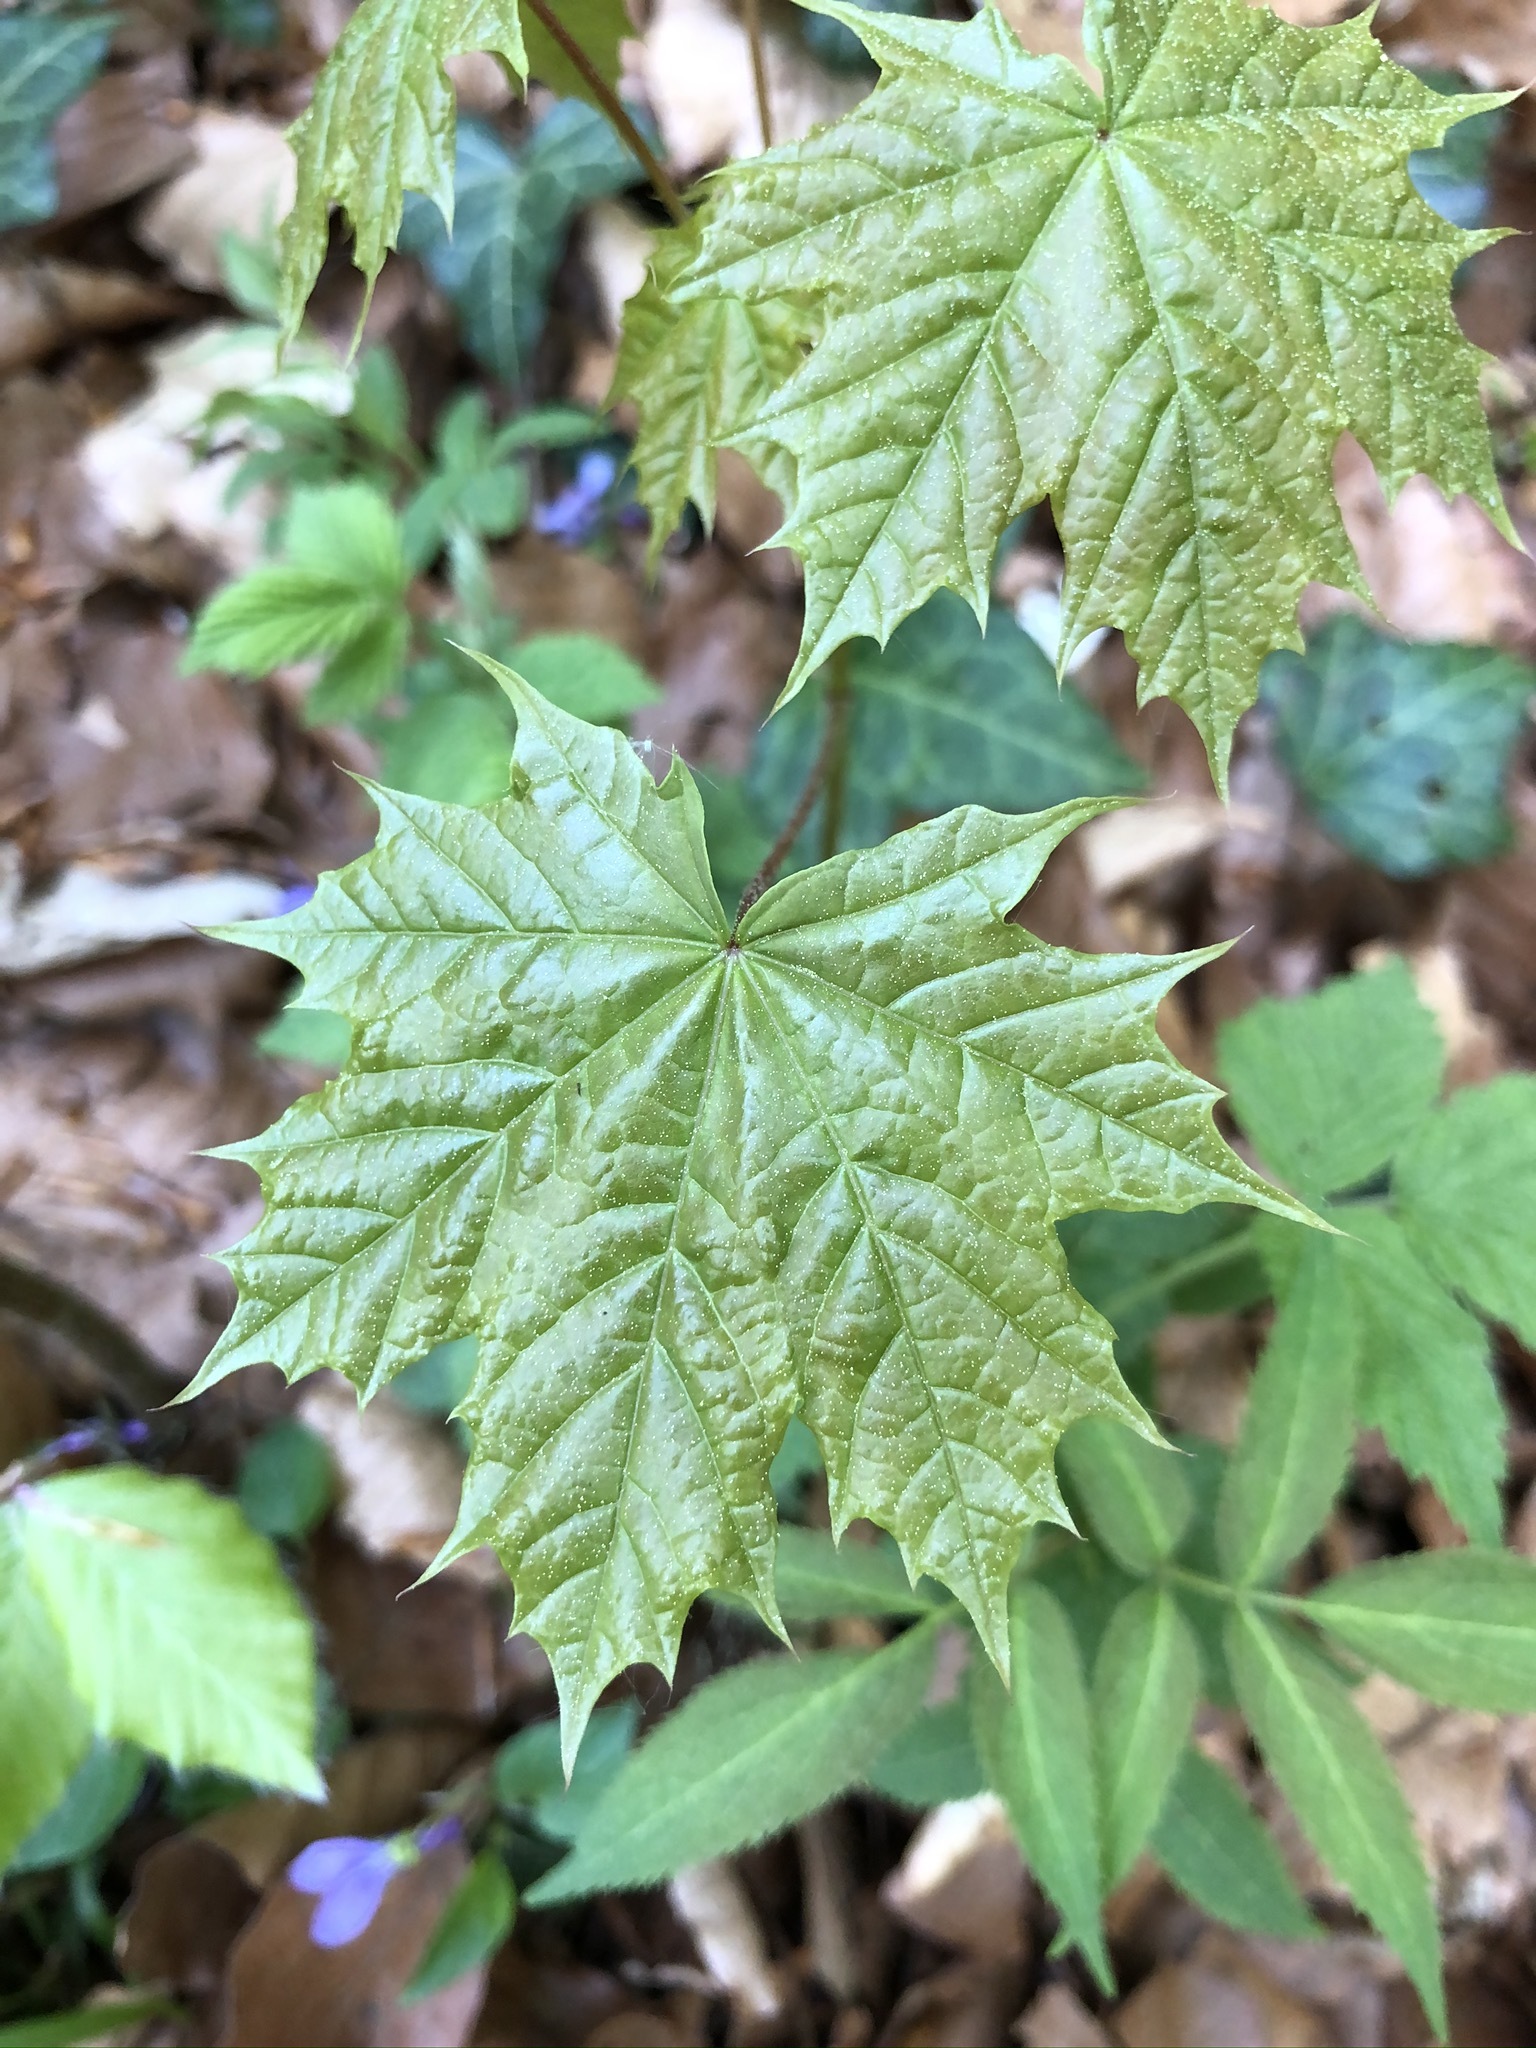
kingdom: Plantae
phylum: Tracheophyta
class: Magnoliopsida
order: Sapindales
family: Sapindaceae
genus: Acer
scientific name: Acer platanoides
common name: Norway maple
